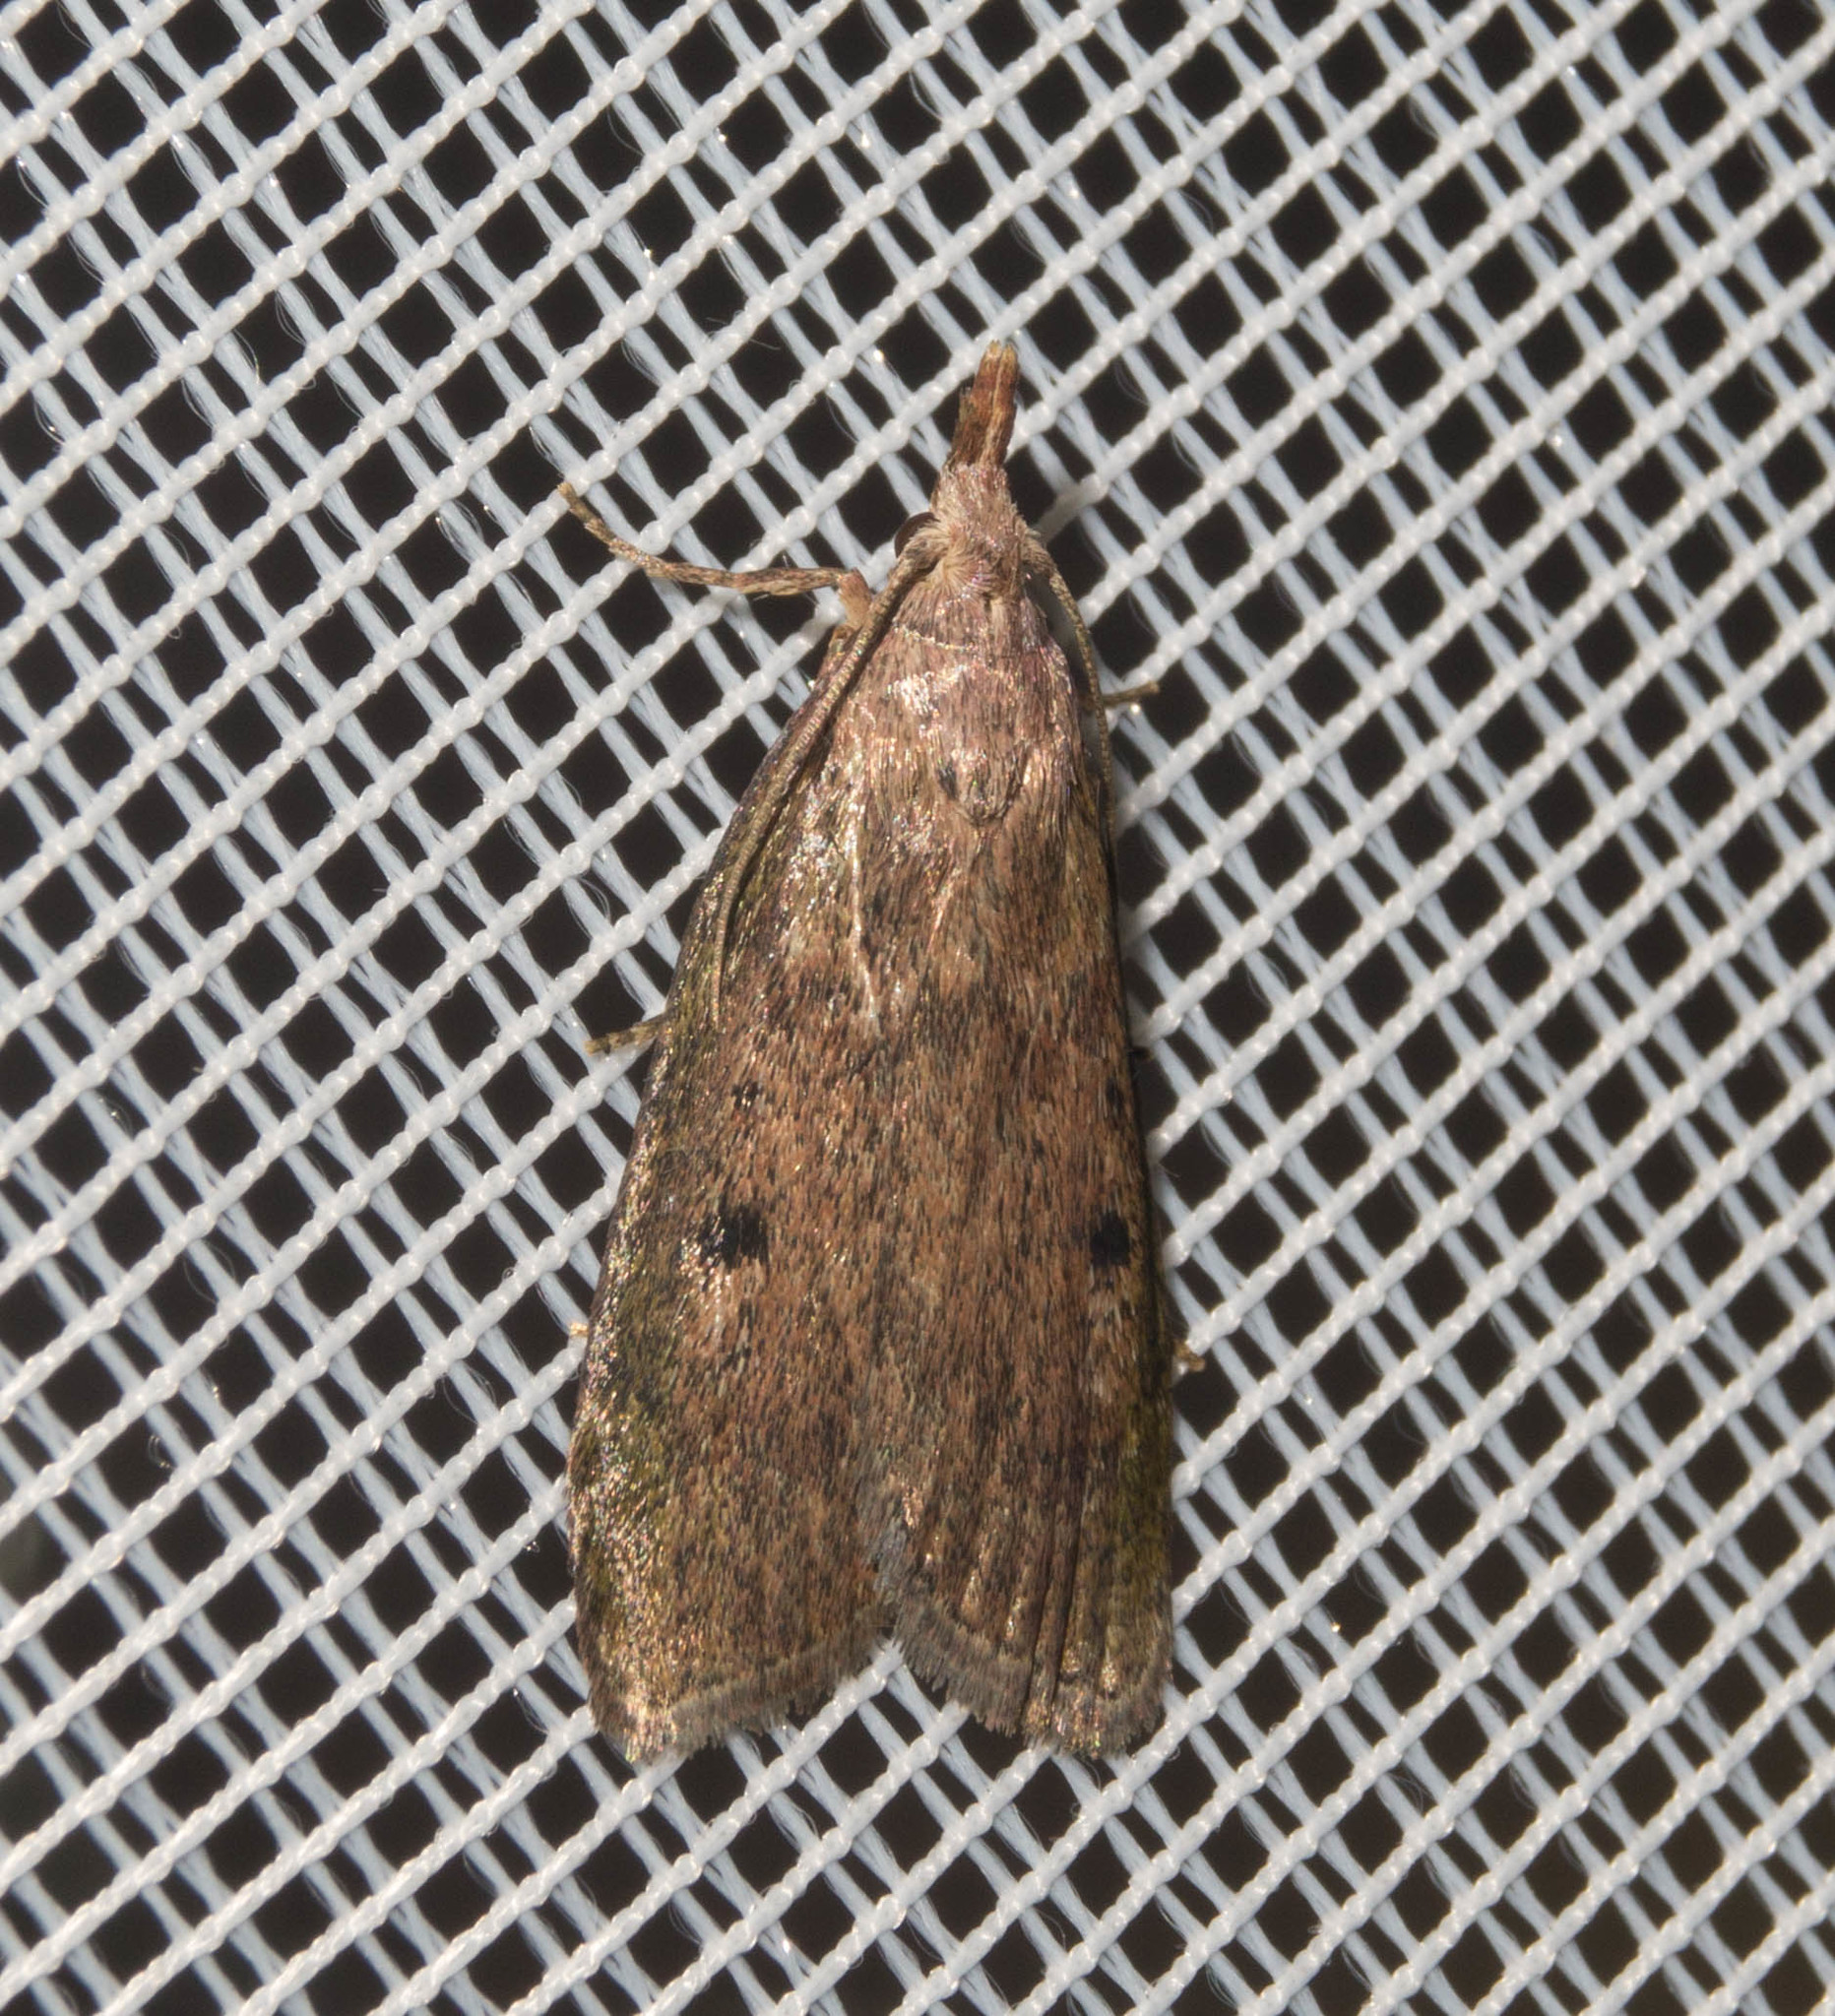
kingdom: Animalia
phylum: Arthropoda
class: Insecta
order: Lepidoptera
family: Pyralidae
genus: Aphomia
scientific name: Aphomia sociella
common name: Bee moth
